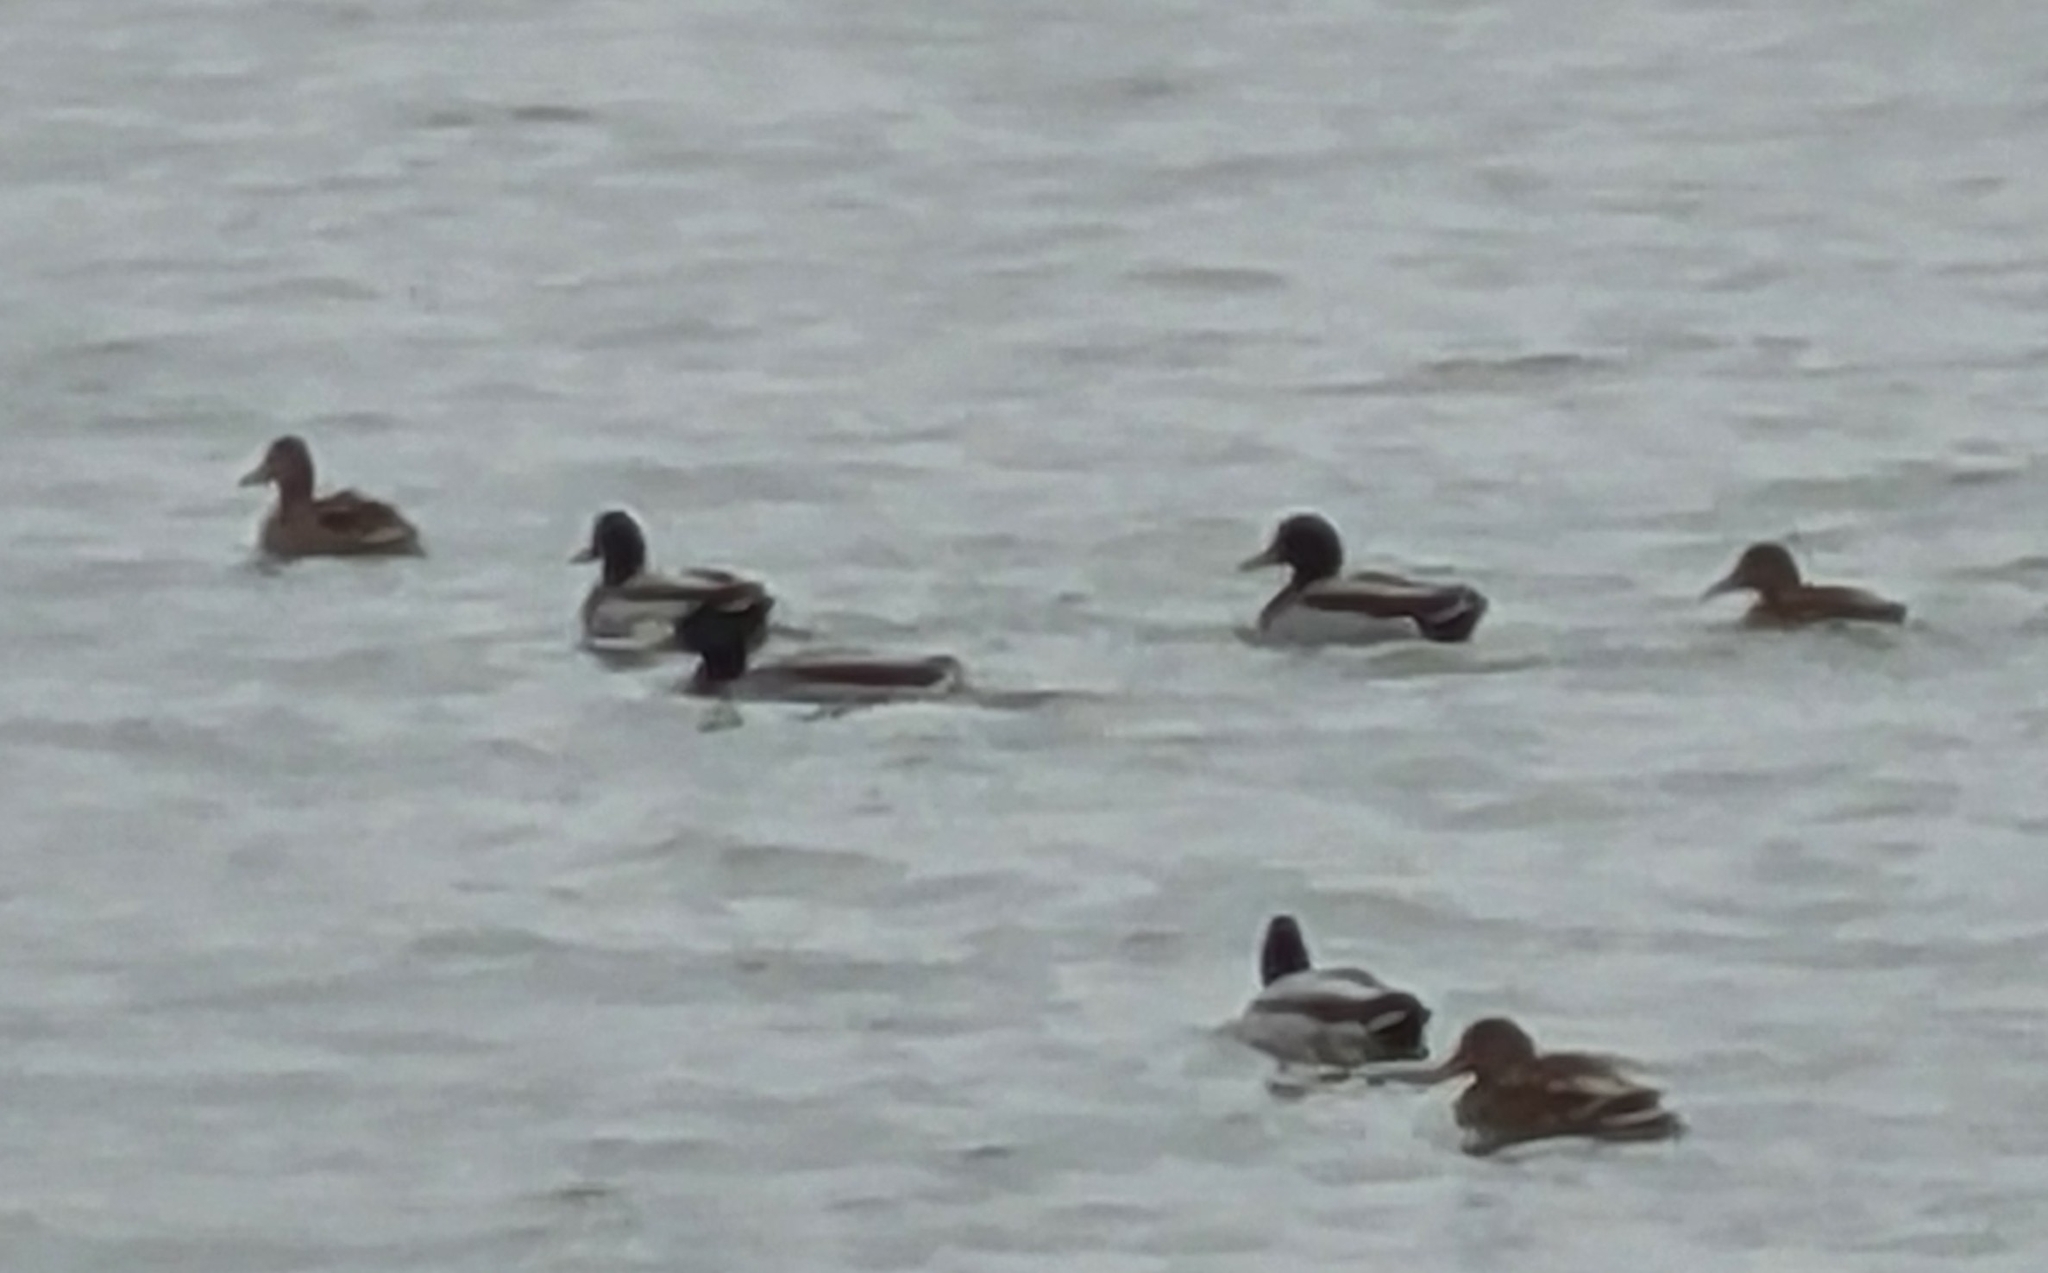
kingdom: Animalia
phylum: Chordata
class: Aves
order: Anseriformes
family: Anatidae
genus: Anas
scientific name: Anas platyrhynchos
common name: Mallard
